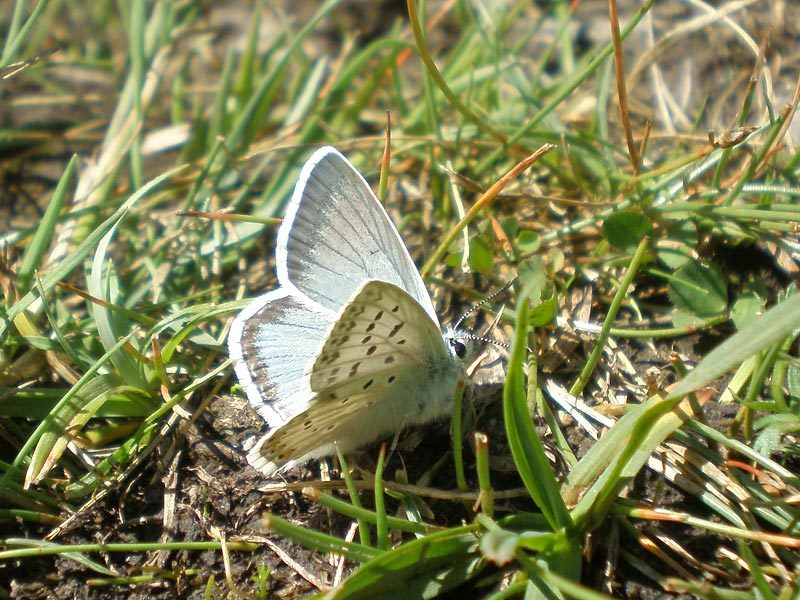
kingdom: Animalia
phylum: Arthropoda
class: Insecta
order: Lepidoptera
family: Lycaenidae
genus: Lysandra
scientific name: Lysandra coridon
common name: Chalkhill blue
